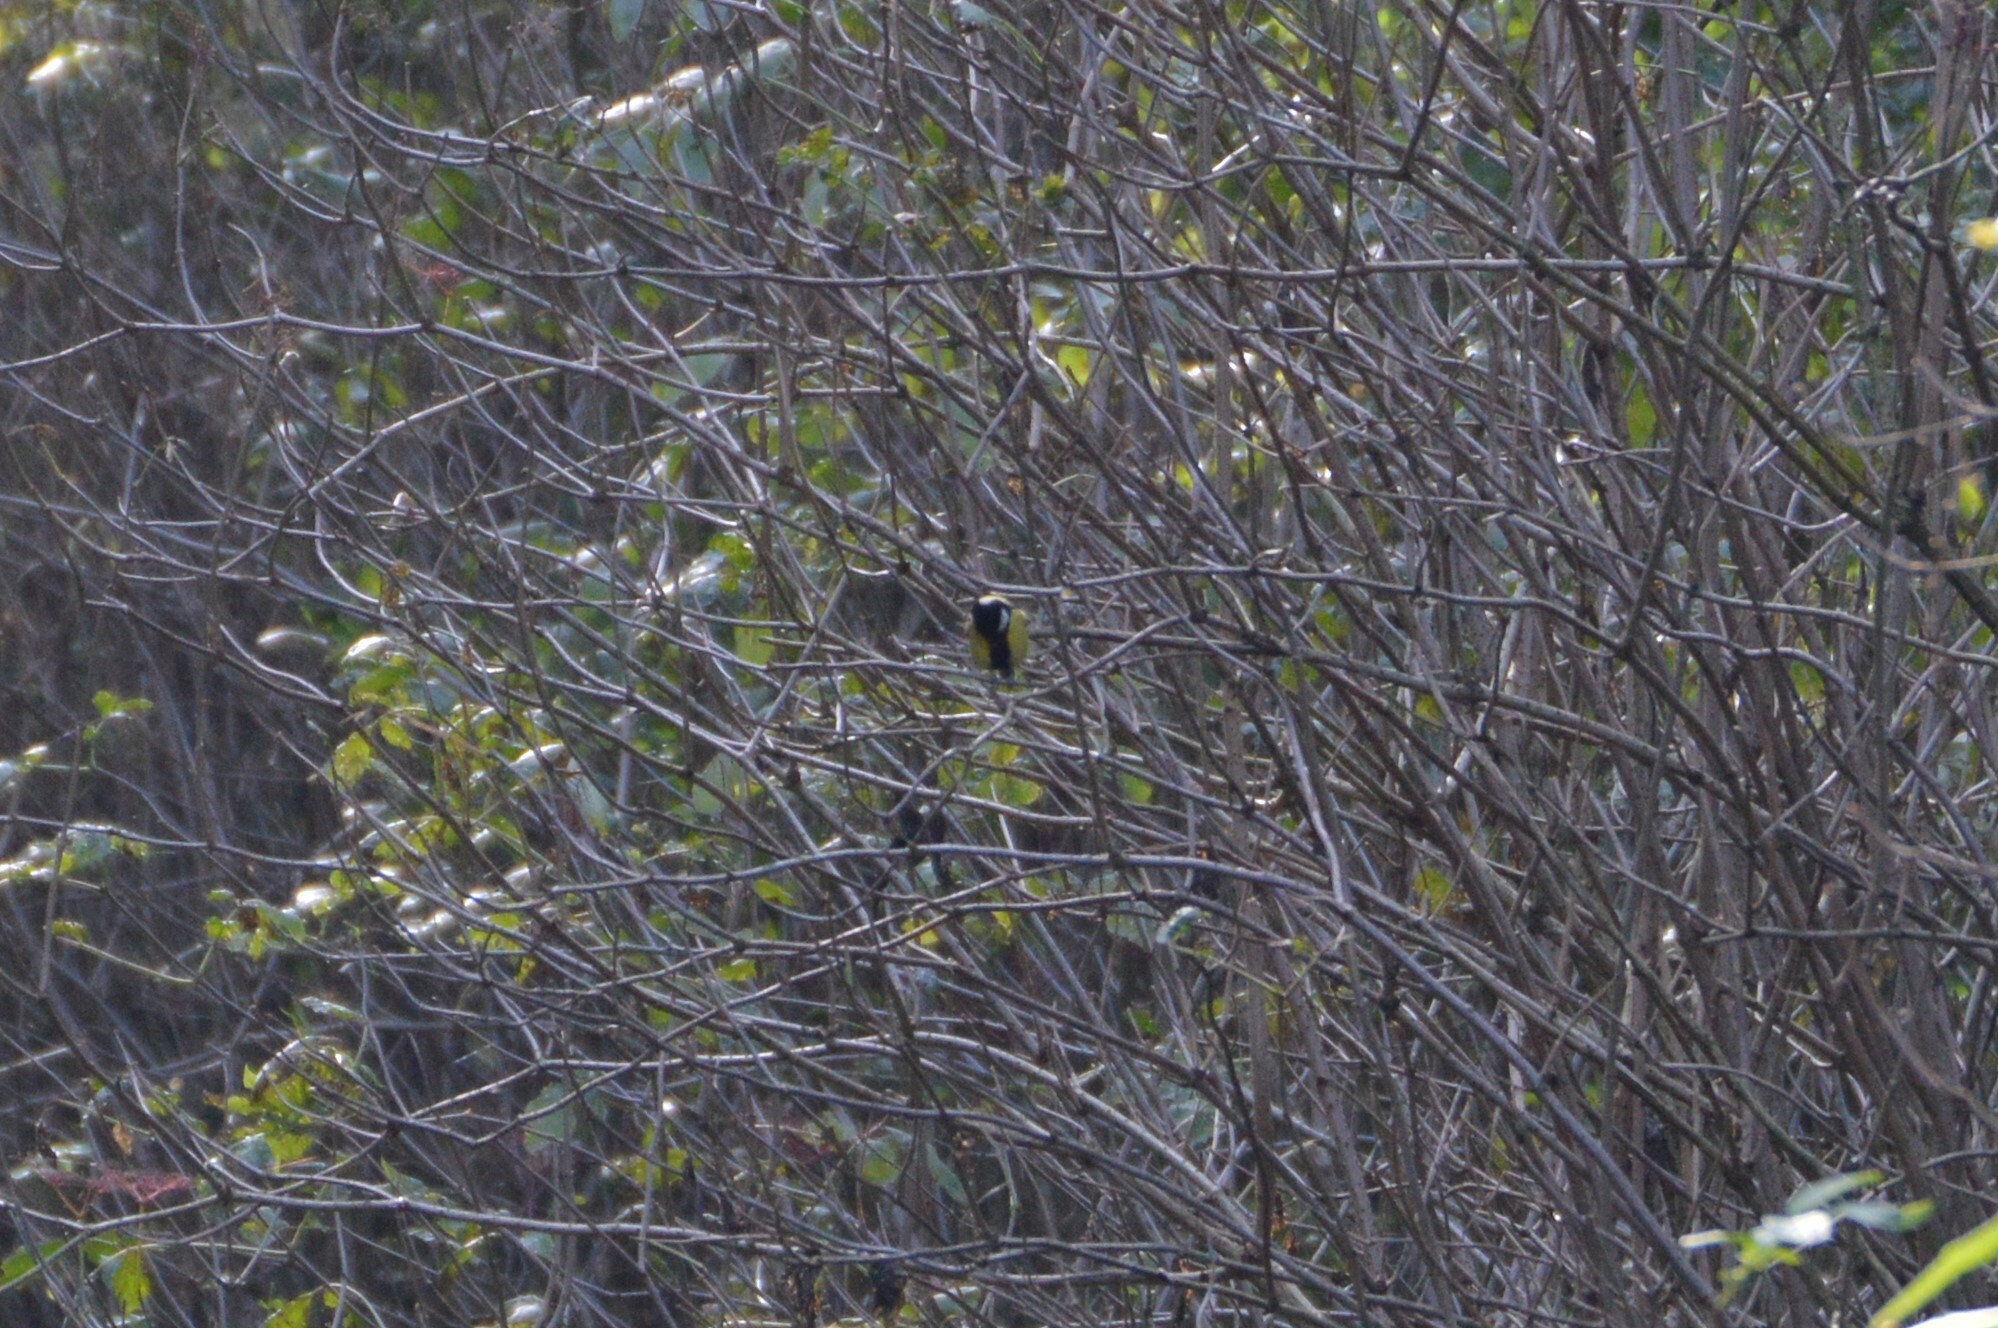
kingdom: Animalia
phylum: Chordata
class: Aves
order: Passeriformes
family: Paridae
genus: Parus
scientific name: Parus major
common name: Great tit
